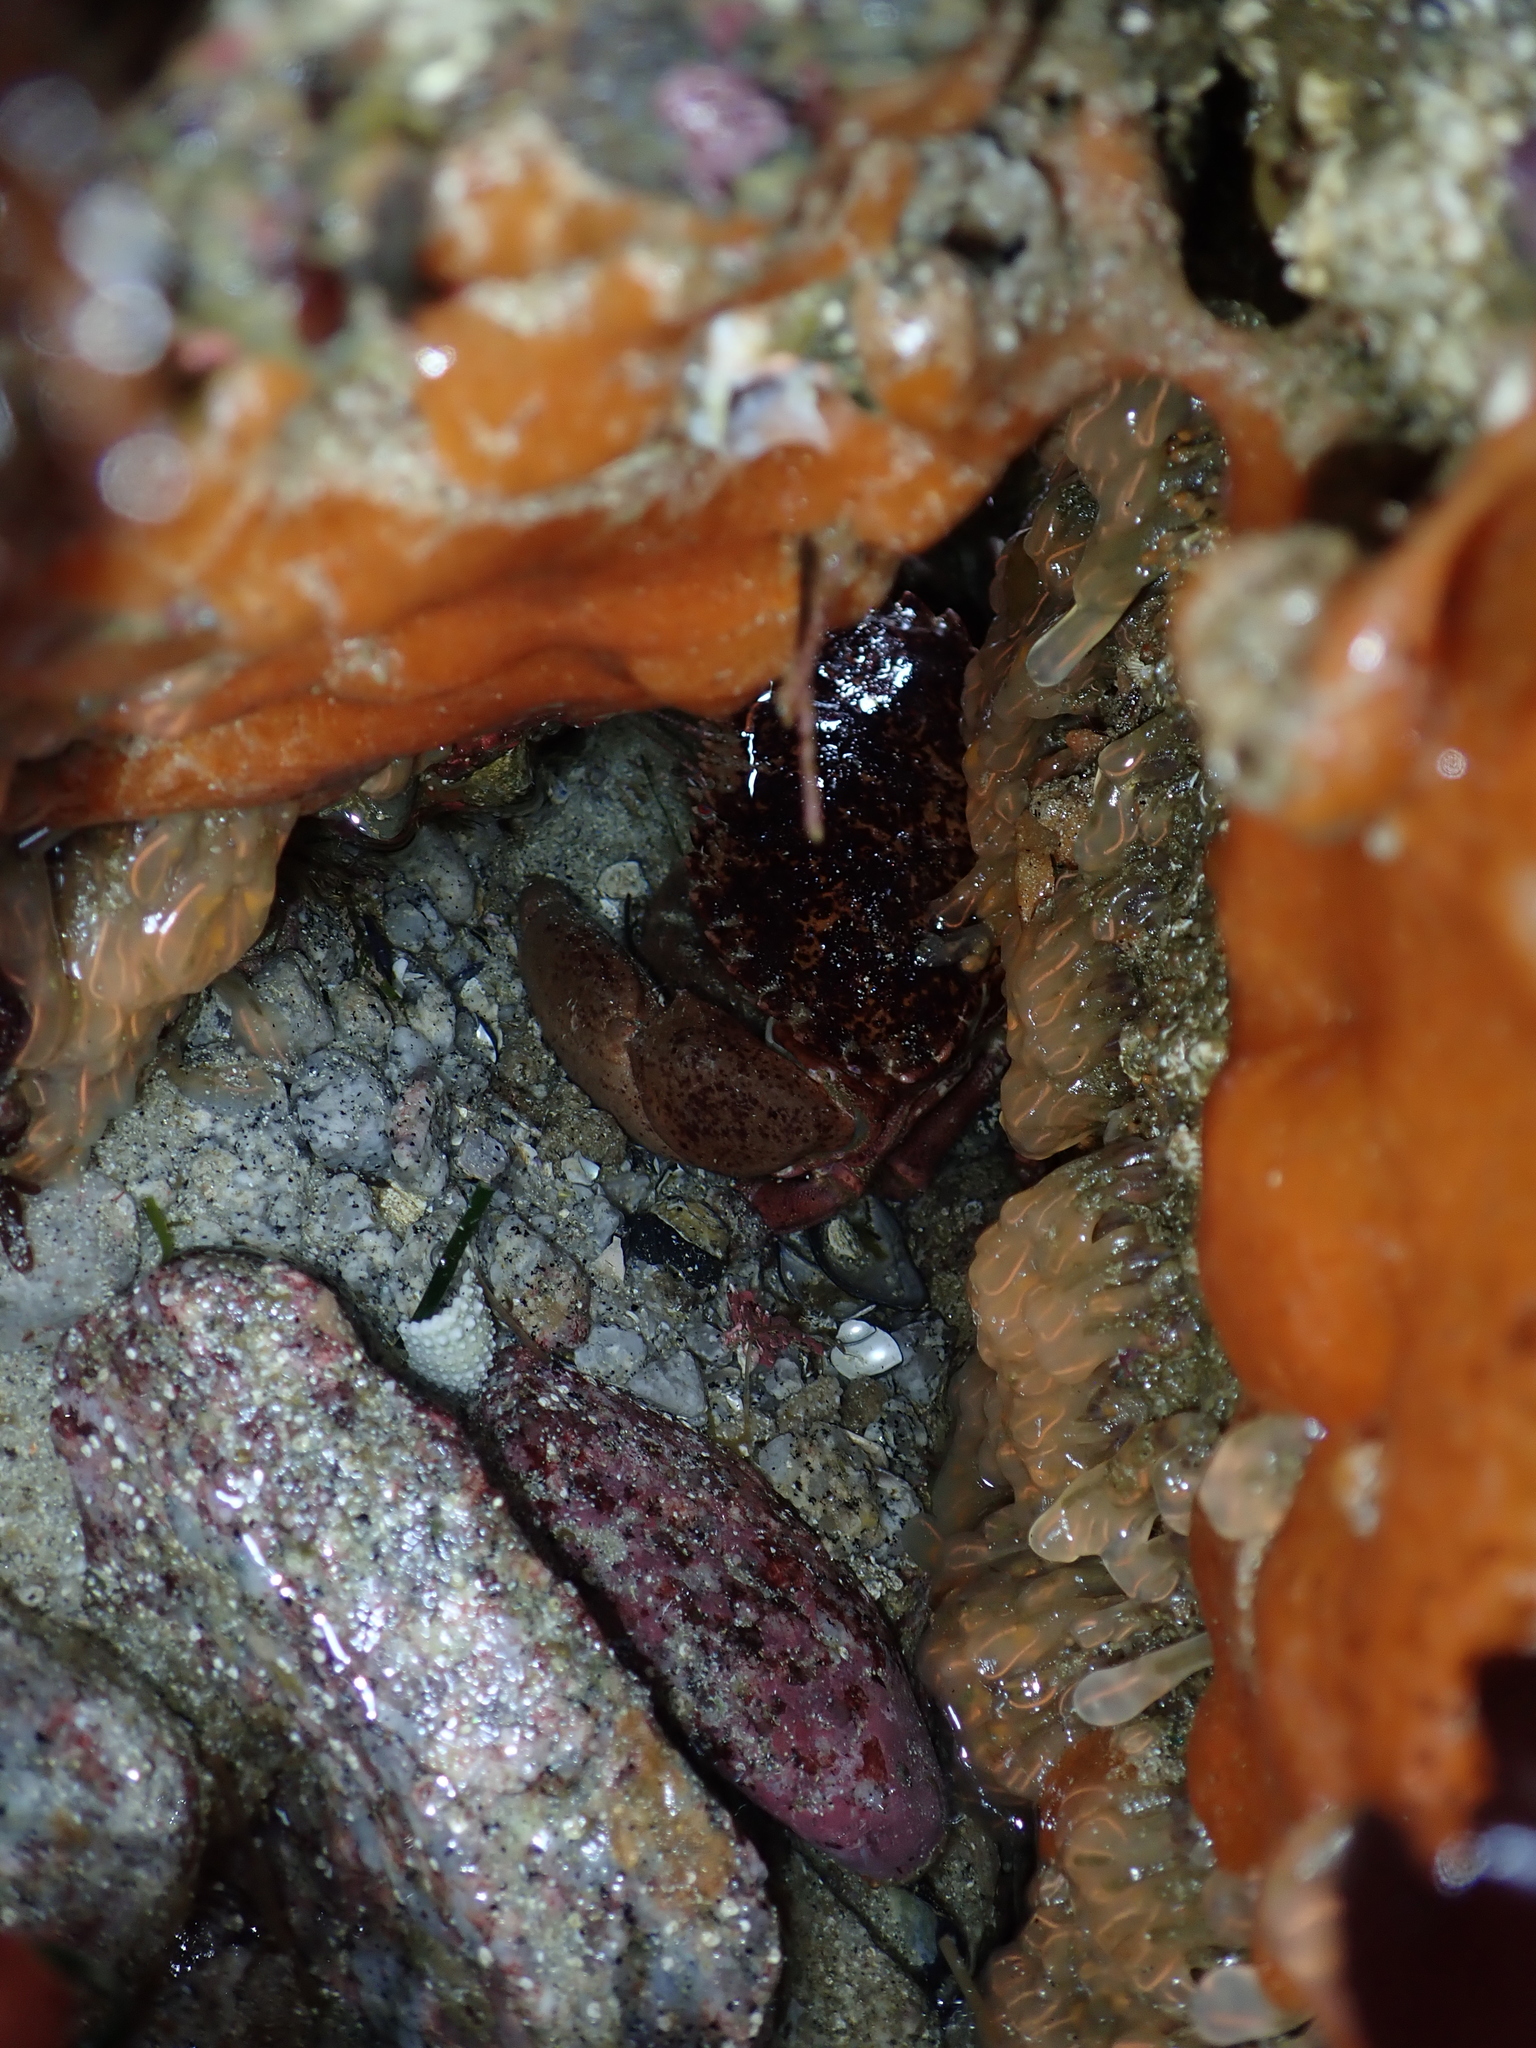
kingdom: Animalia
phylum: Arthropoda
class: Malacostraca
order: Decapoda
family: Cancridae
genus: Romaleon
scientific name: Romaleon antennarium
